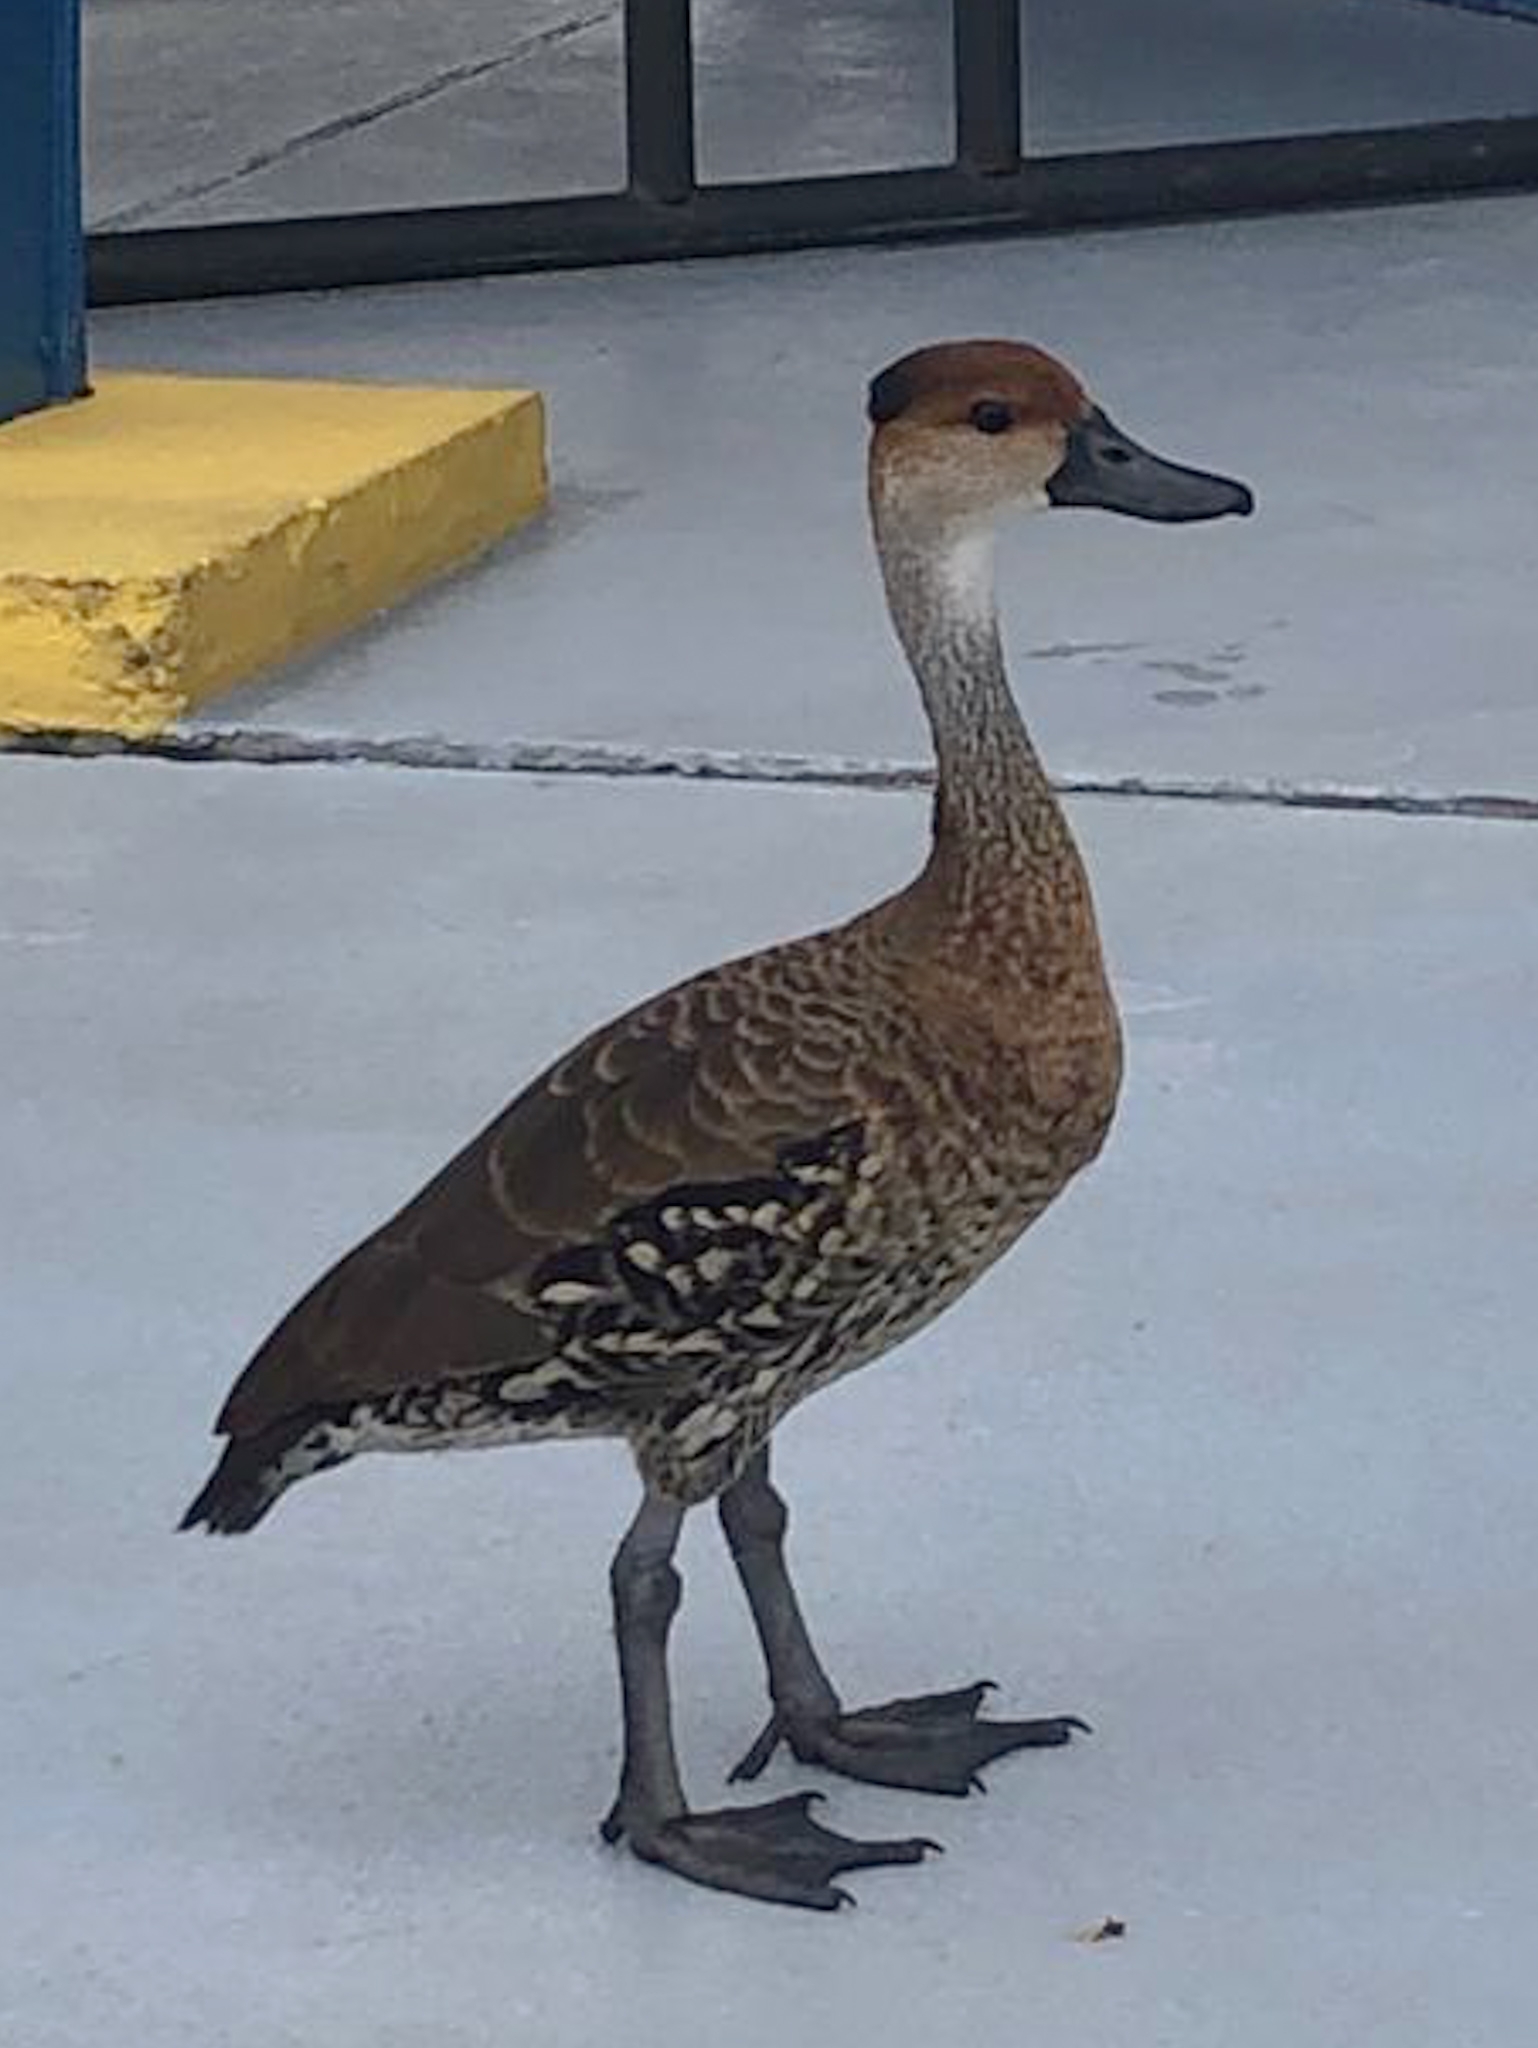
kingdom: Animalia
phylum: Chordata
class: Aves
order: Anseriformes
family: Anatidae
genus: Dendrocygna
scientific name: Dendrocygna arborea
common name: West indian whistling duck
